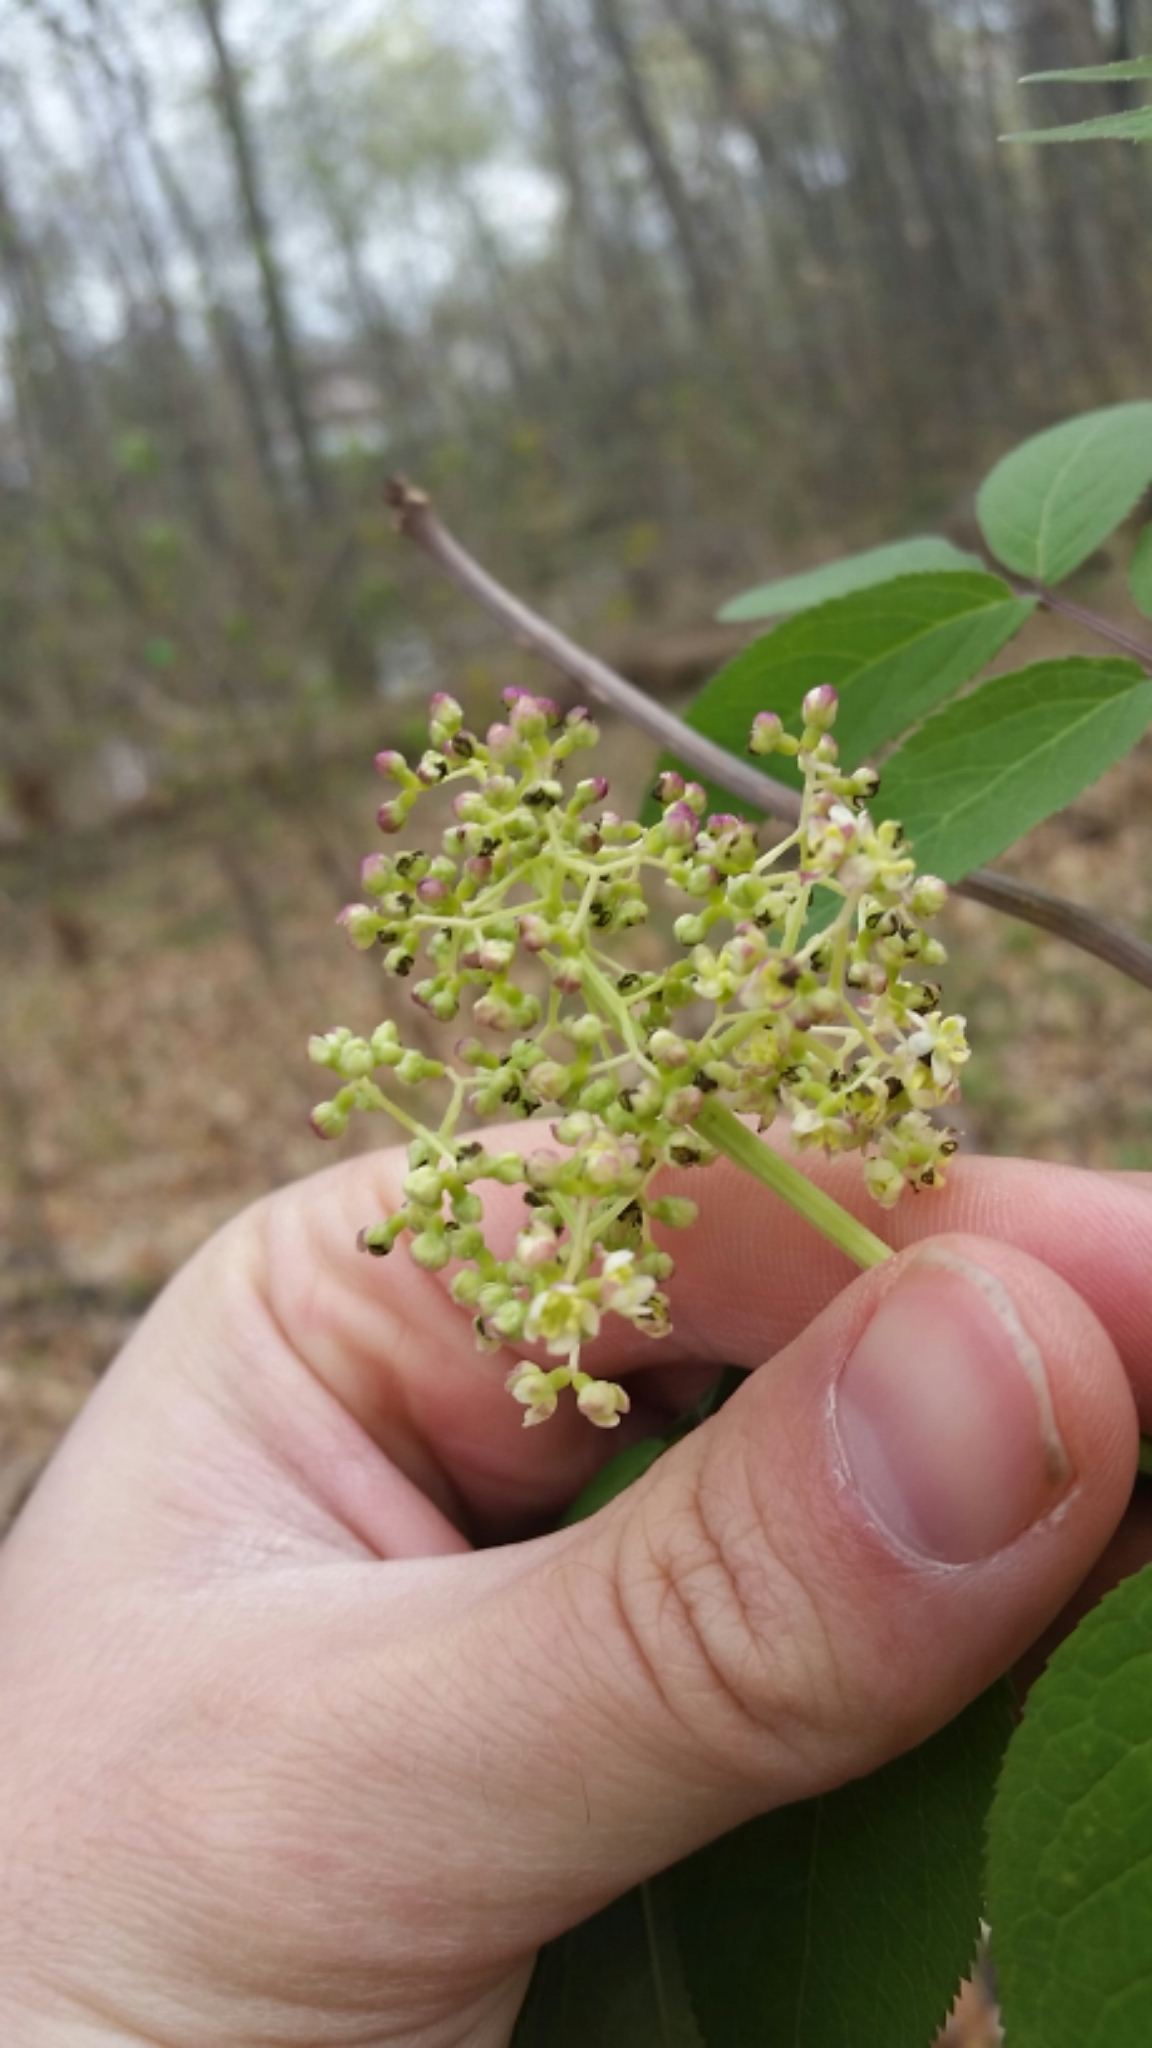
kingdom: Plantae
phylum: Tracheophyta
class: Magnoliopsida
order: Dipsacales
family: Viburnaceae
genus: Sambucus
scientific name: Sambucus racemosa
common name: Red-berried elder
